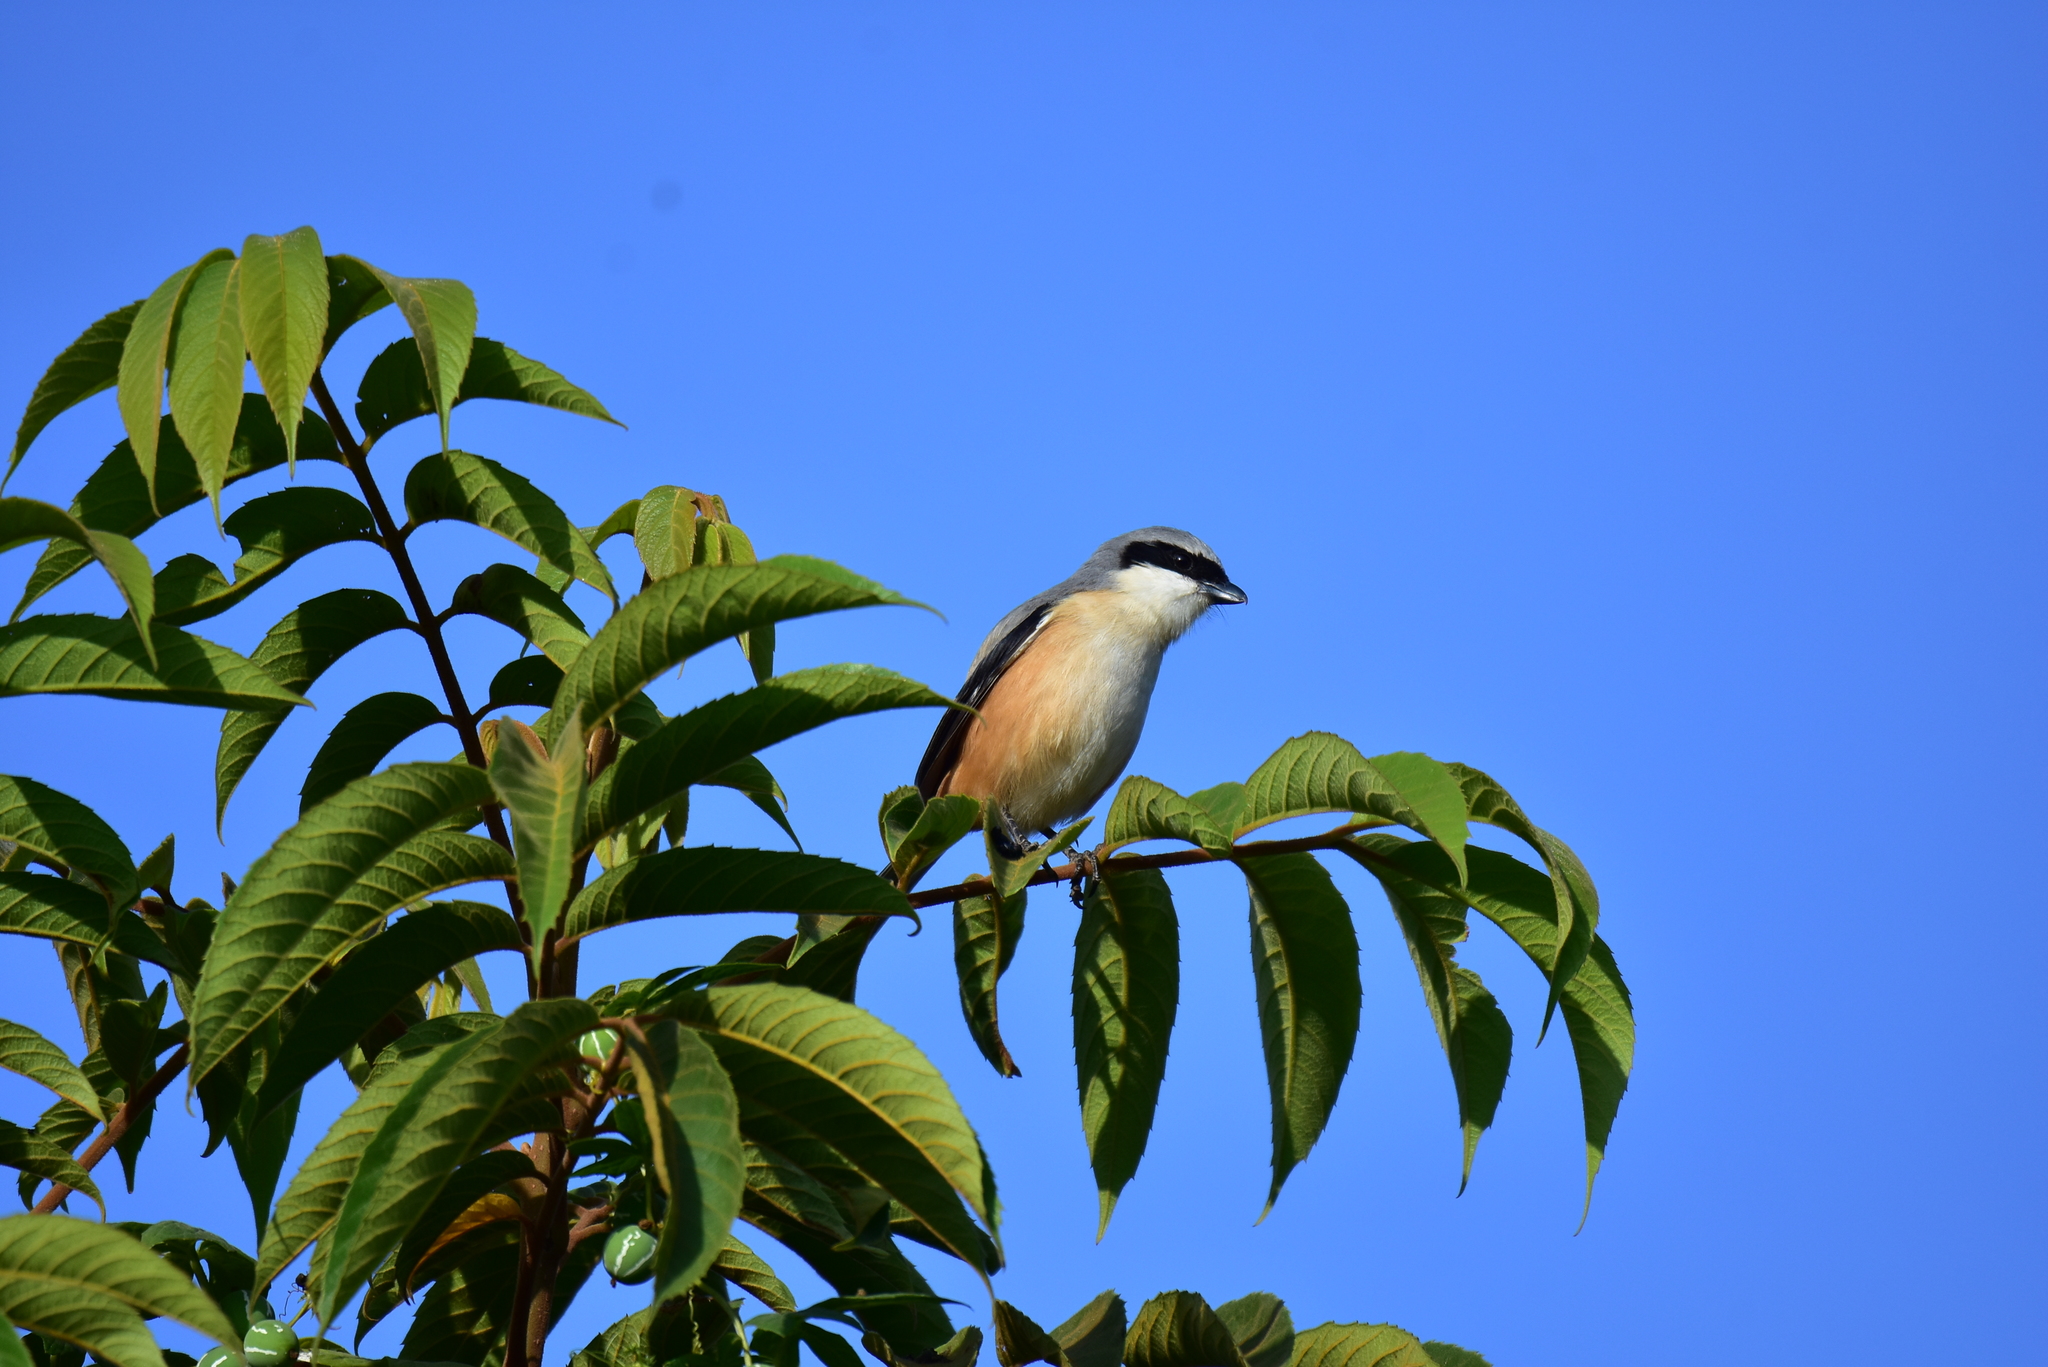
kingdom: Animalia
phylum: Chordata
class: Aves
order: Passeriformes
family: Laniidae
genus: Lanius
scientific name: Lanius schach
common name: Long-tailed shrike
